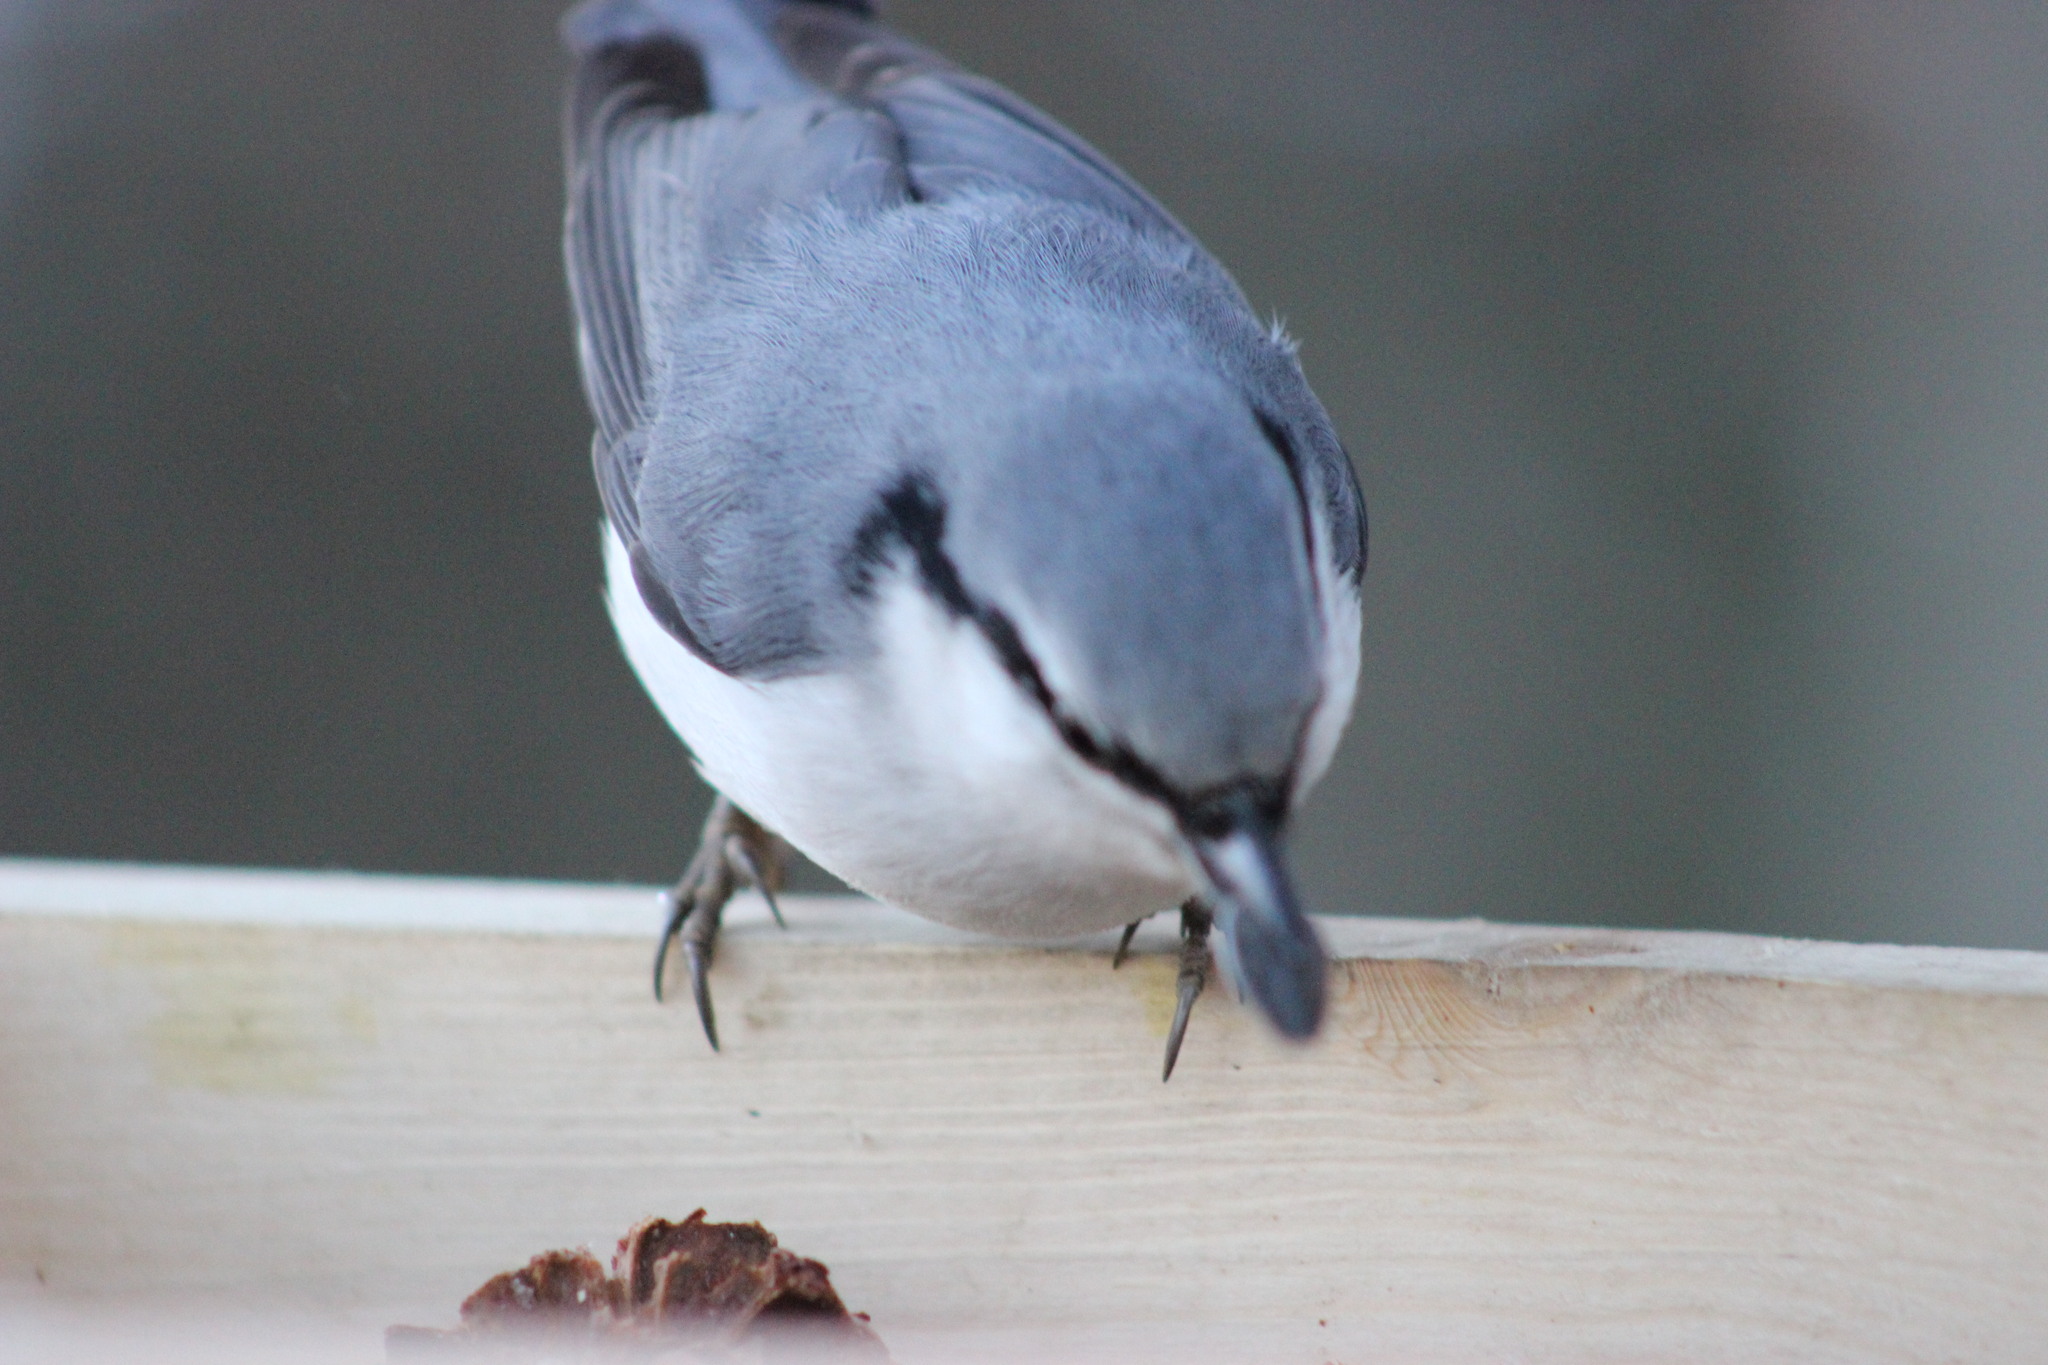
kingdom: Animalia
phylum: Chordata
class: Aves
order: Passeriformes
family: Sittidae
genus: Sitta
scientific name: Sitta europaea
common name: Eurasian nuthatch
